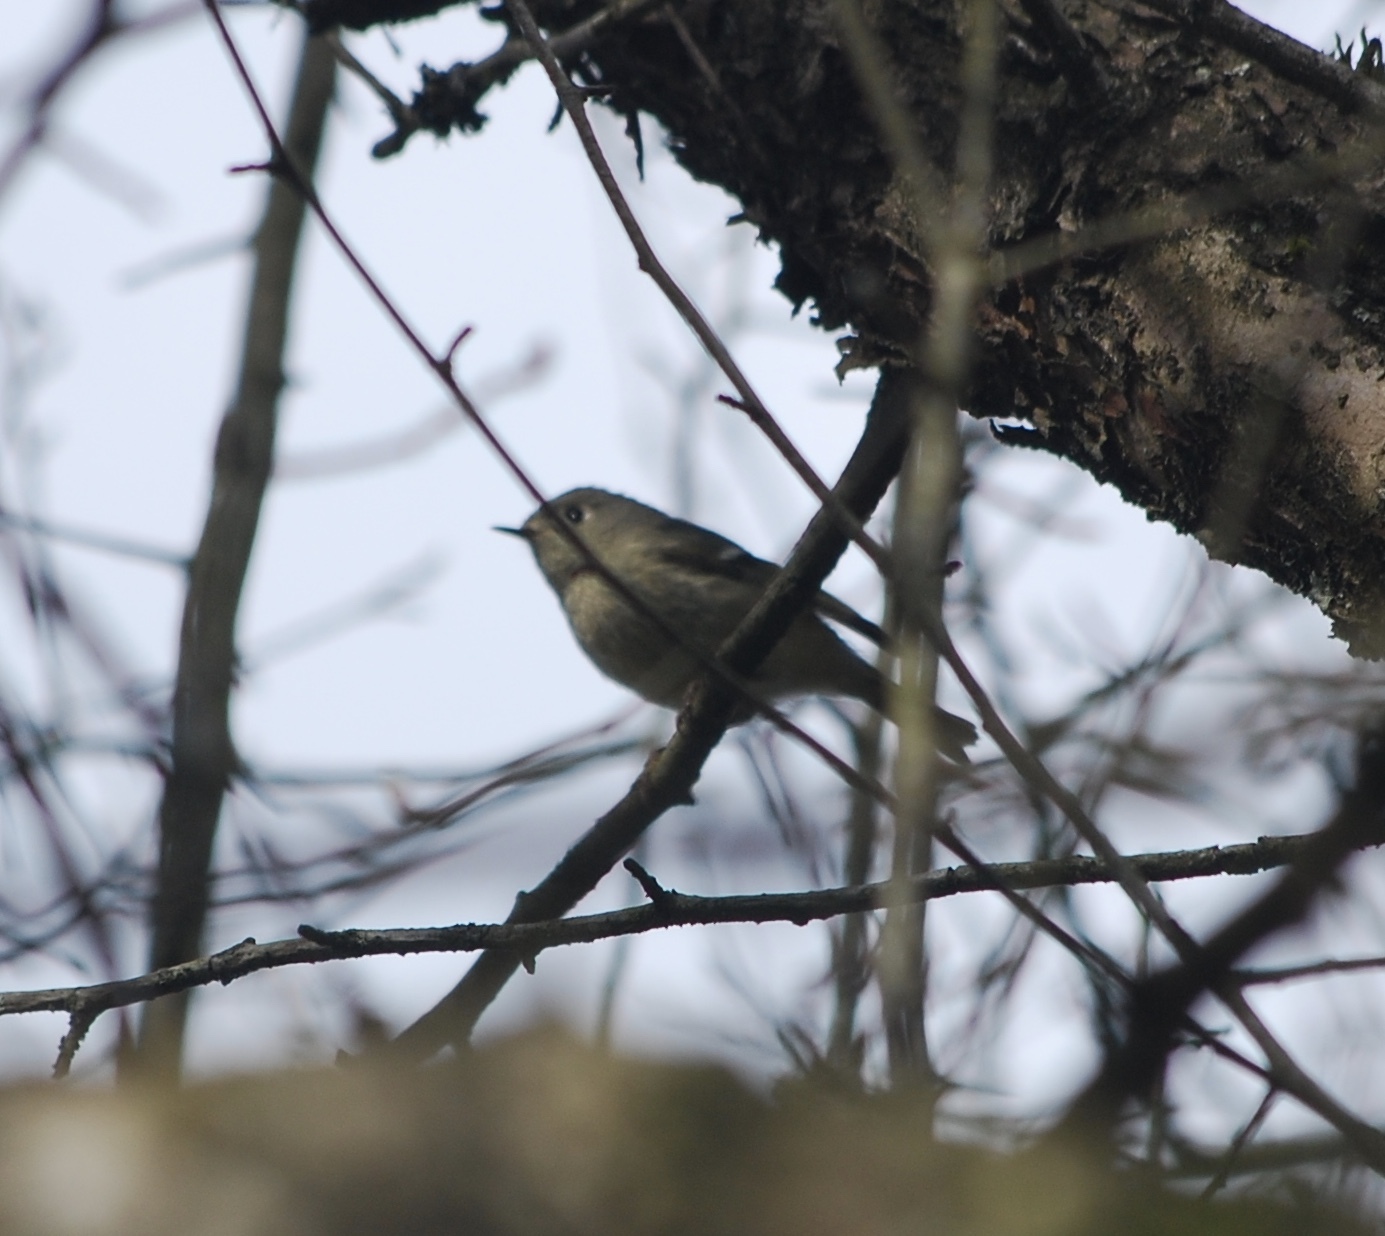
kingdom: Animalia
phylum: Chordata
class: Aves
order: Passeriformes
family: Regulidae
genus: Regulus
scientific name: Regulus calendula
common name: Ruby-crowned kinglet
